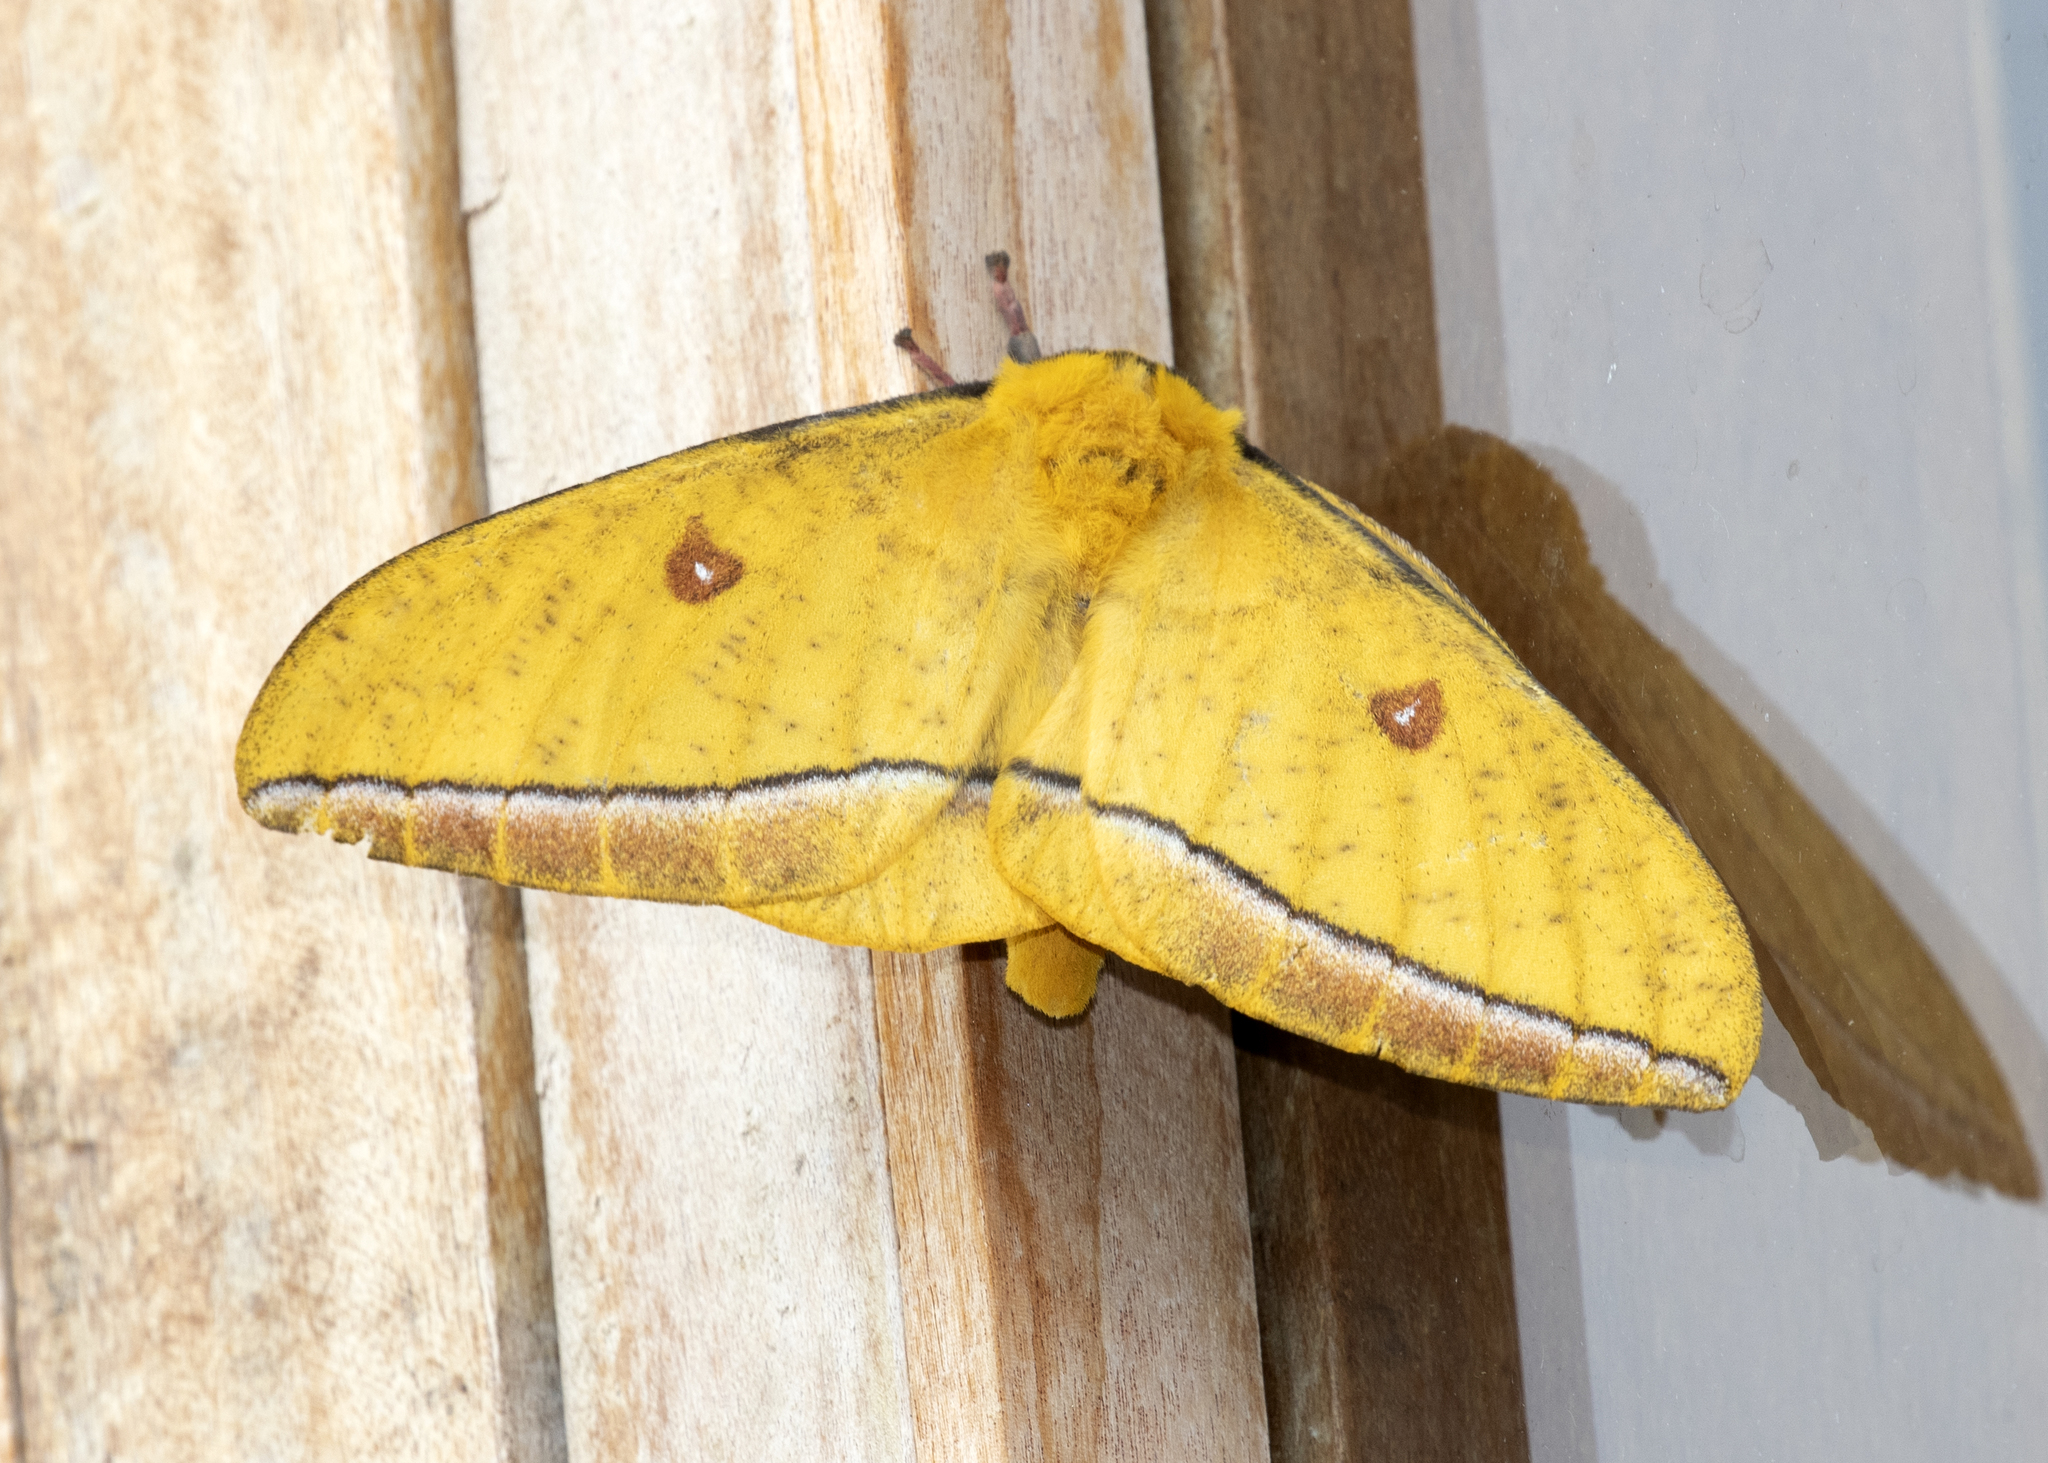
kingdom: Animalia
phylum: Arthropoda
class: Insecta
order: Lepidoptera
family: Saturniidae
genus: Bathyphlebia
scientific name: Bathyphlebia aglioides
